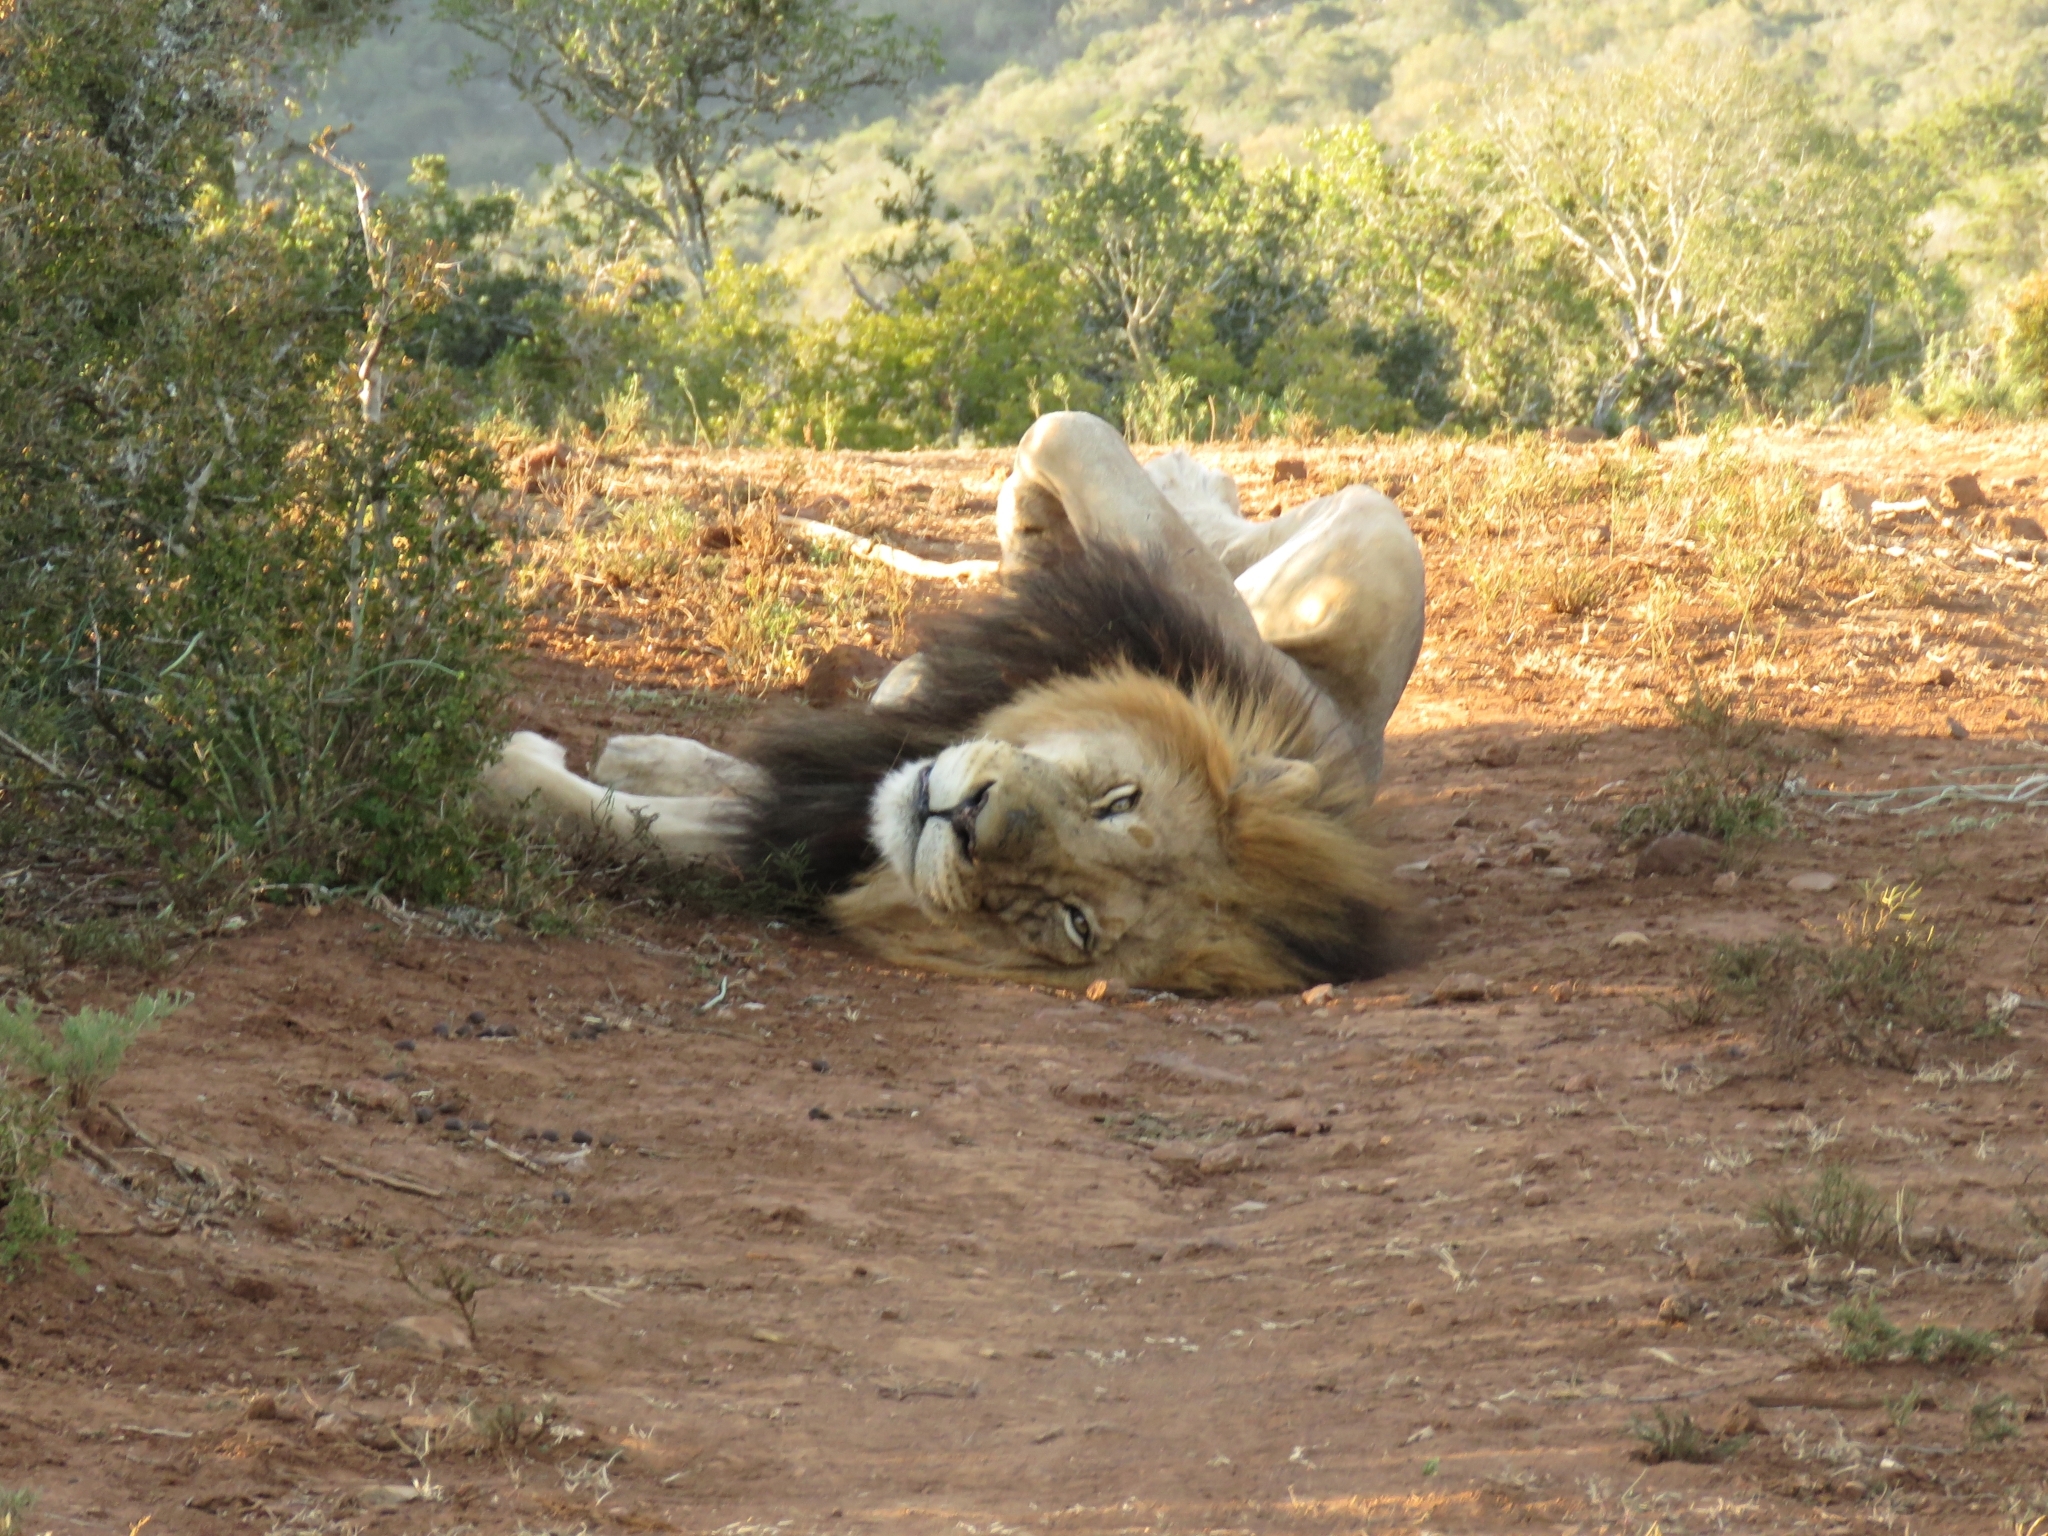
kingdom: Animalia
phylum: Chordata
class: Mammalia
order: Carnivora
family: Felidae
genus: Panthera
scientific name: Panthera leo
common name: Lion
